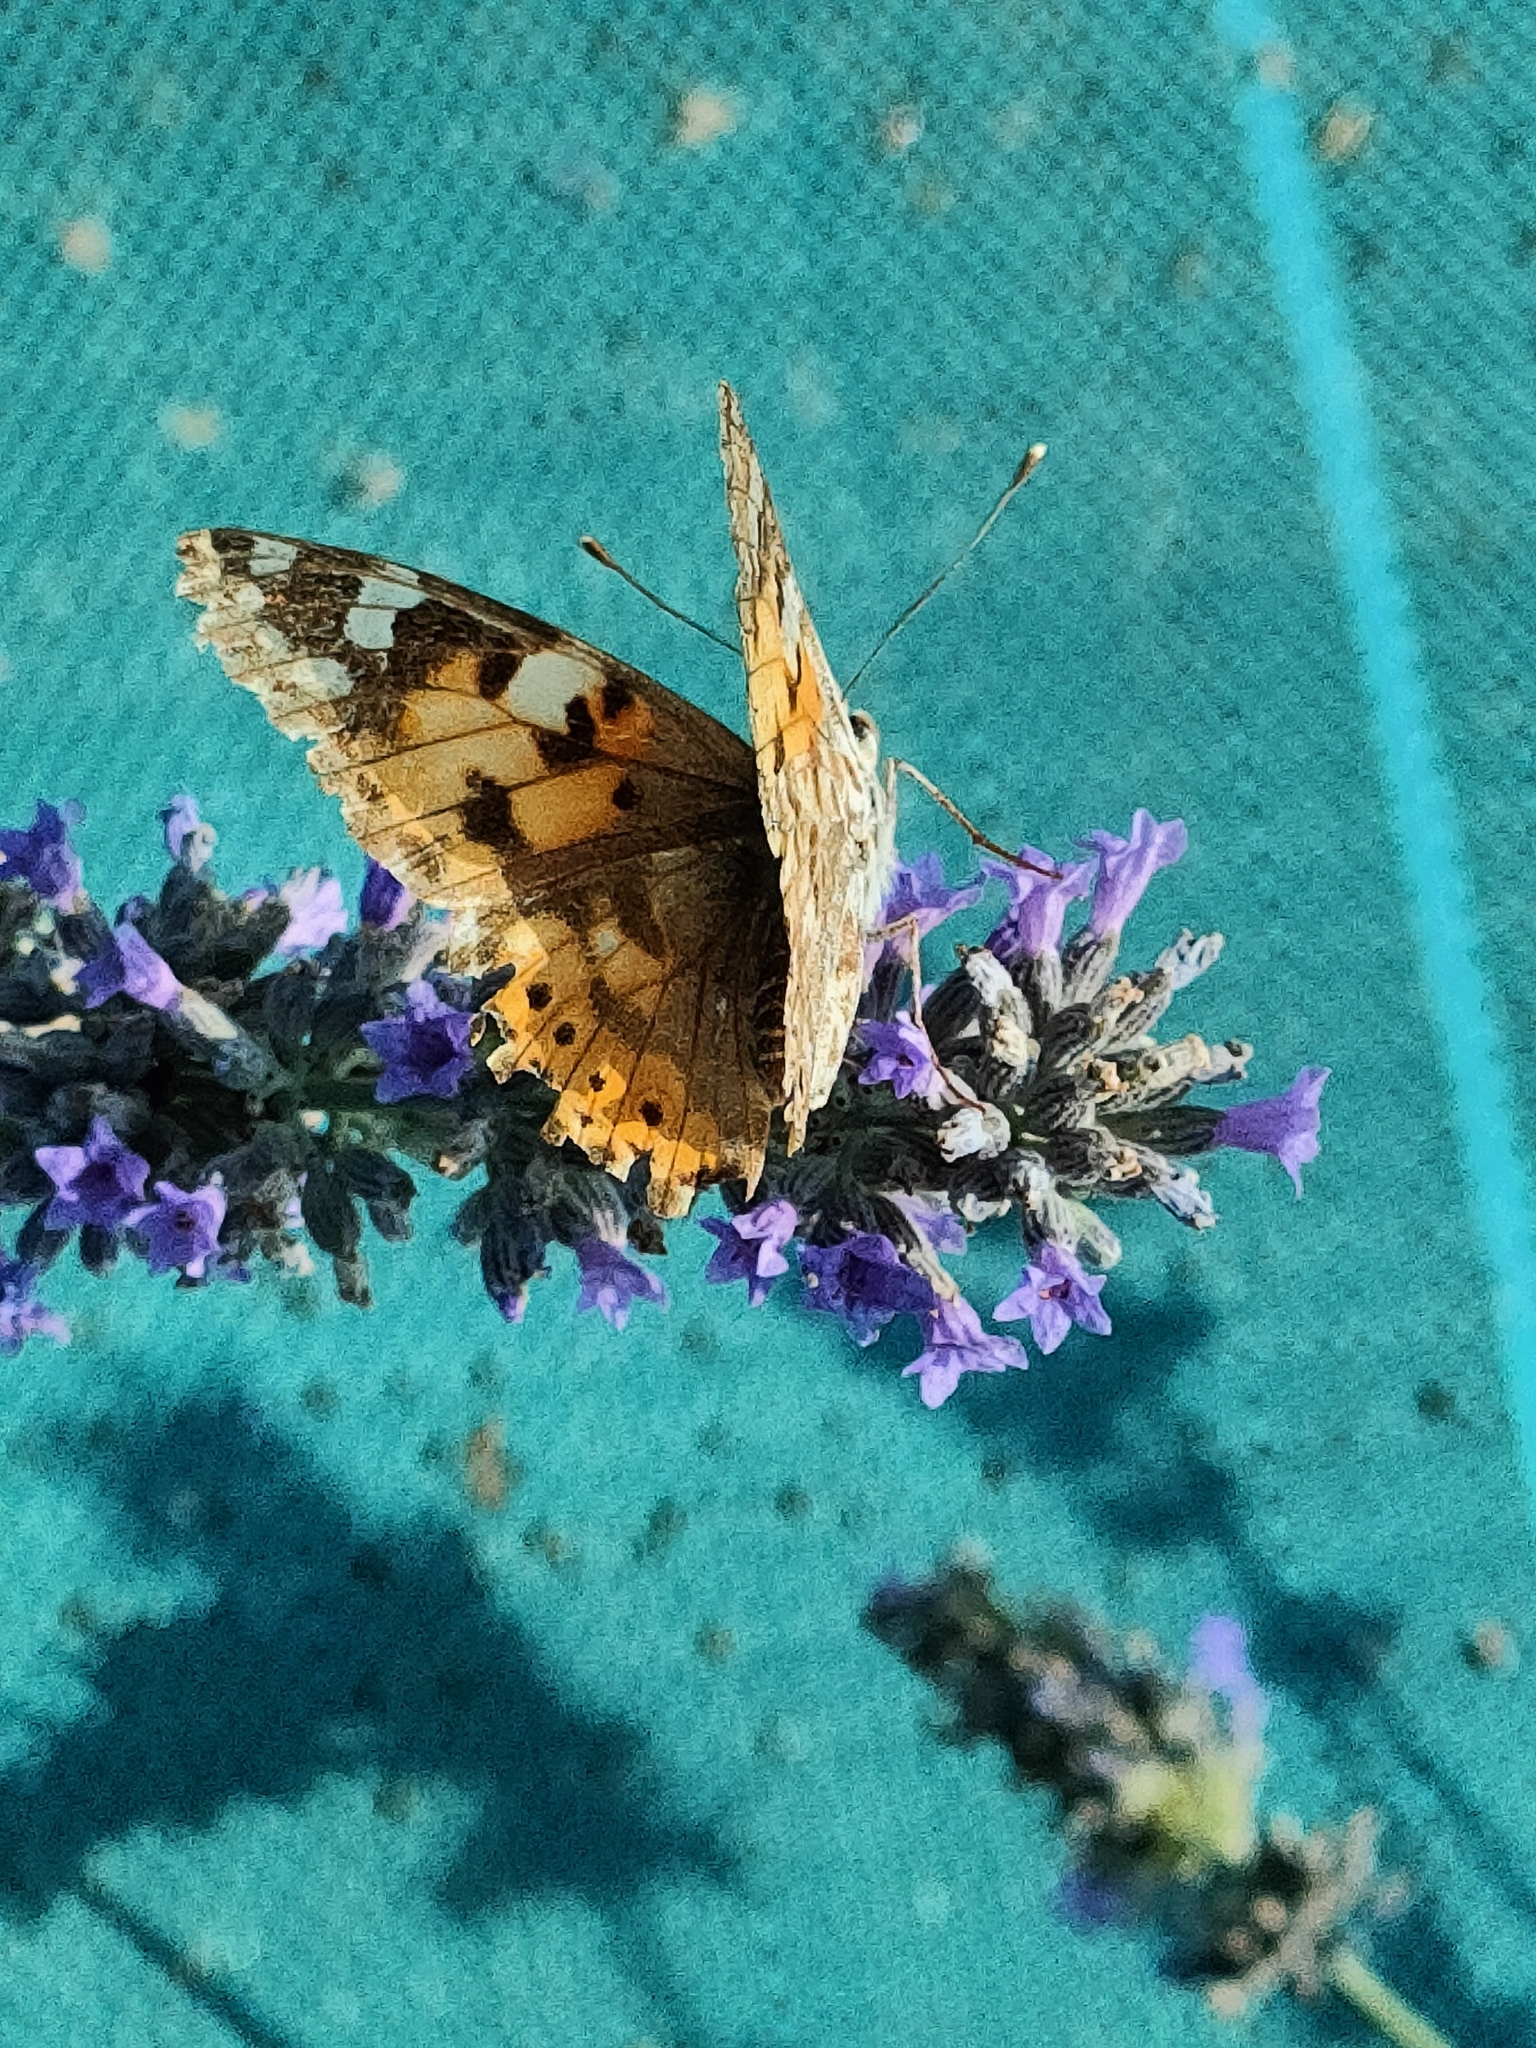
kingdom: Animalia
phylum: Arthropoda
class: Insecta
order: Lepidoptera
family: Nymphalidae
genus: Vanessa
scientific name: Vanessa cardui
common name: Painted lady
